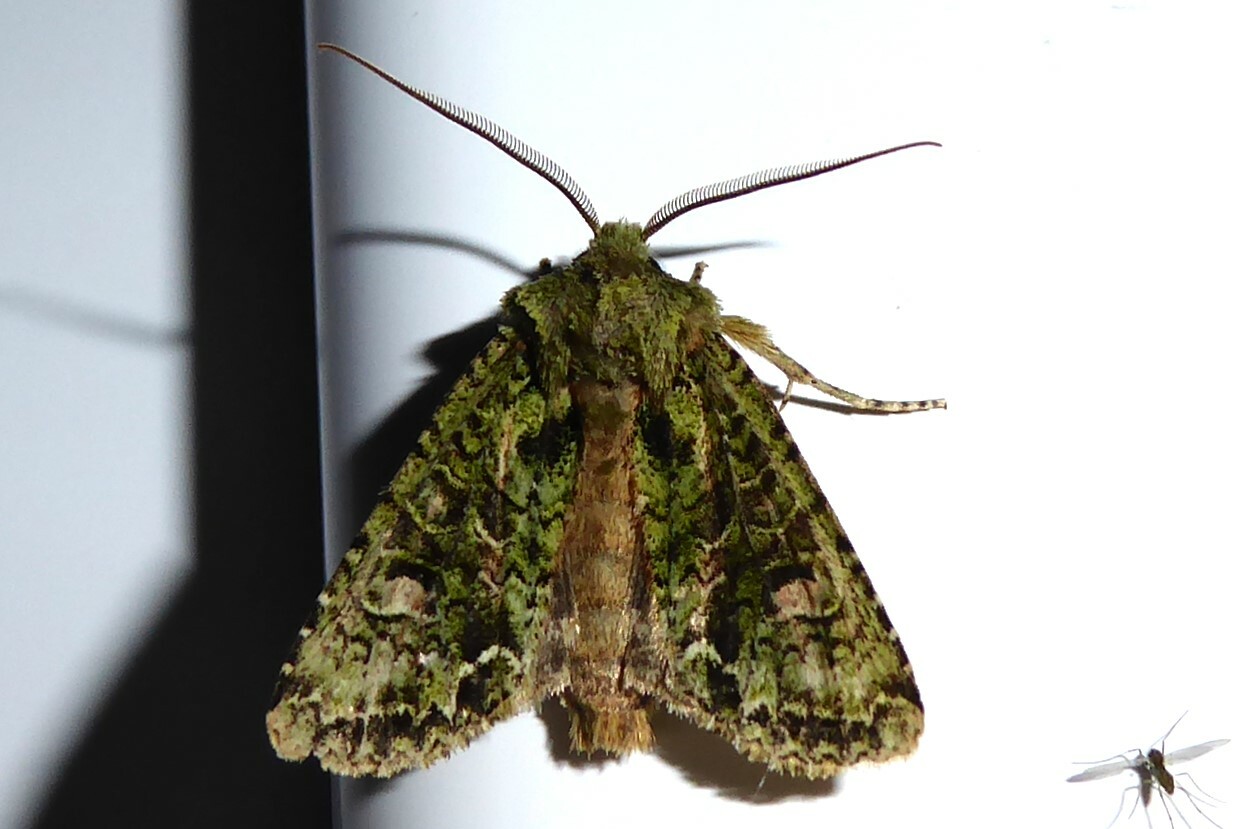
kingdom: Animalia
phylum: Arthropoda
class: Insecta
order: Lepidoptera
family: Noctuidae
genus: Ichneutica
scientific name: Ichneutica
